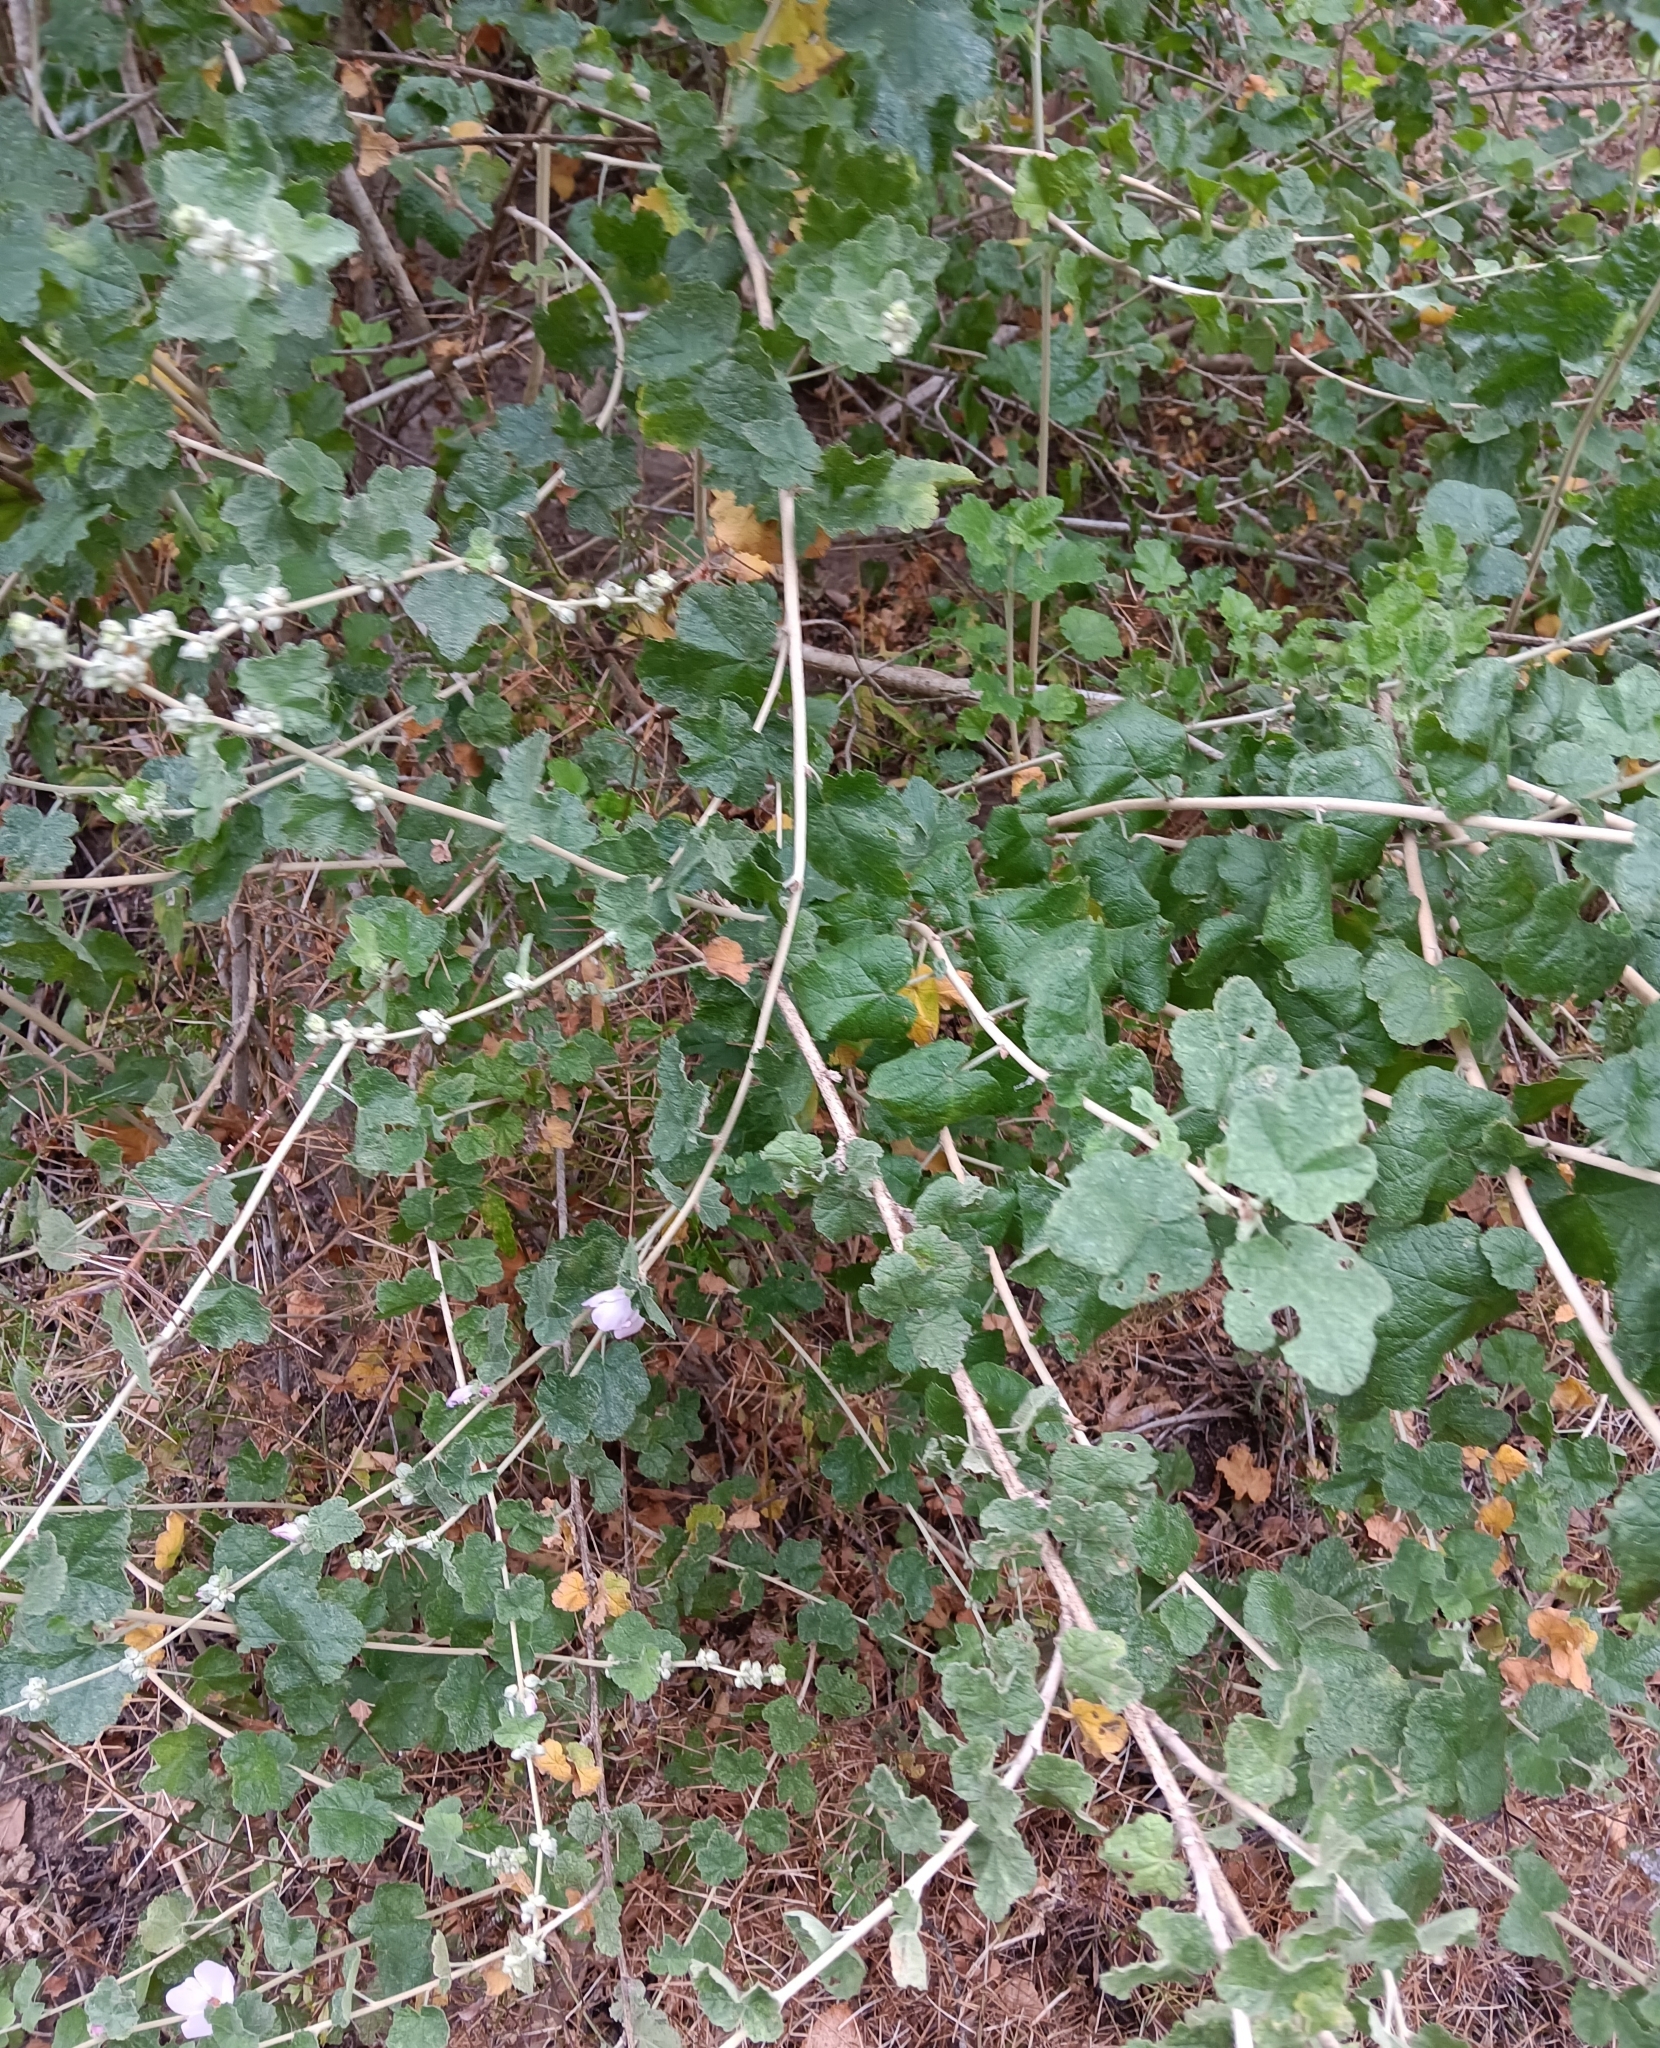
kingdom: Plantae
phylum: Tracheophyta
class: Magnoliopsida
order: Malvales
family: Malvaceae
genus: Malacothamnus
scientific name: Malacothamnus fasciculatus
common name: Sant cruz island bush-mallow
